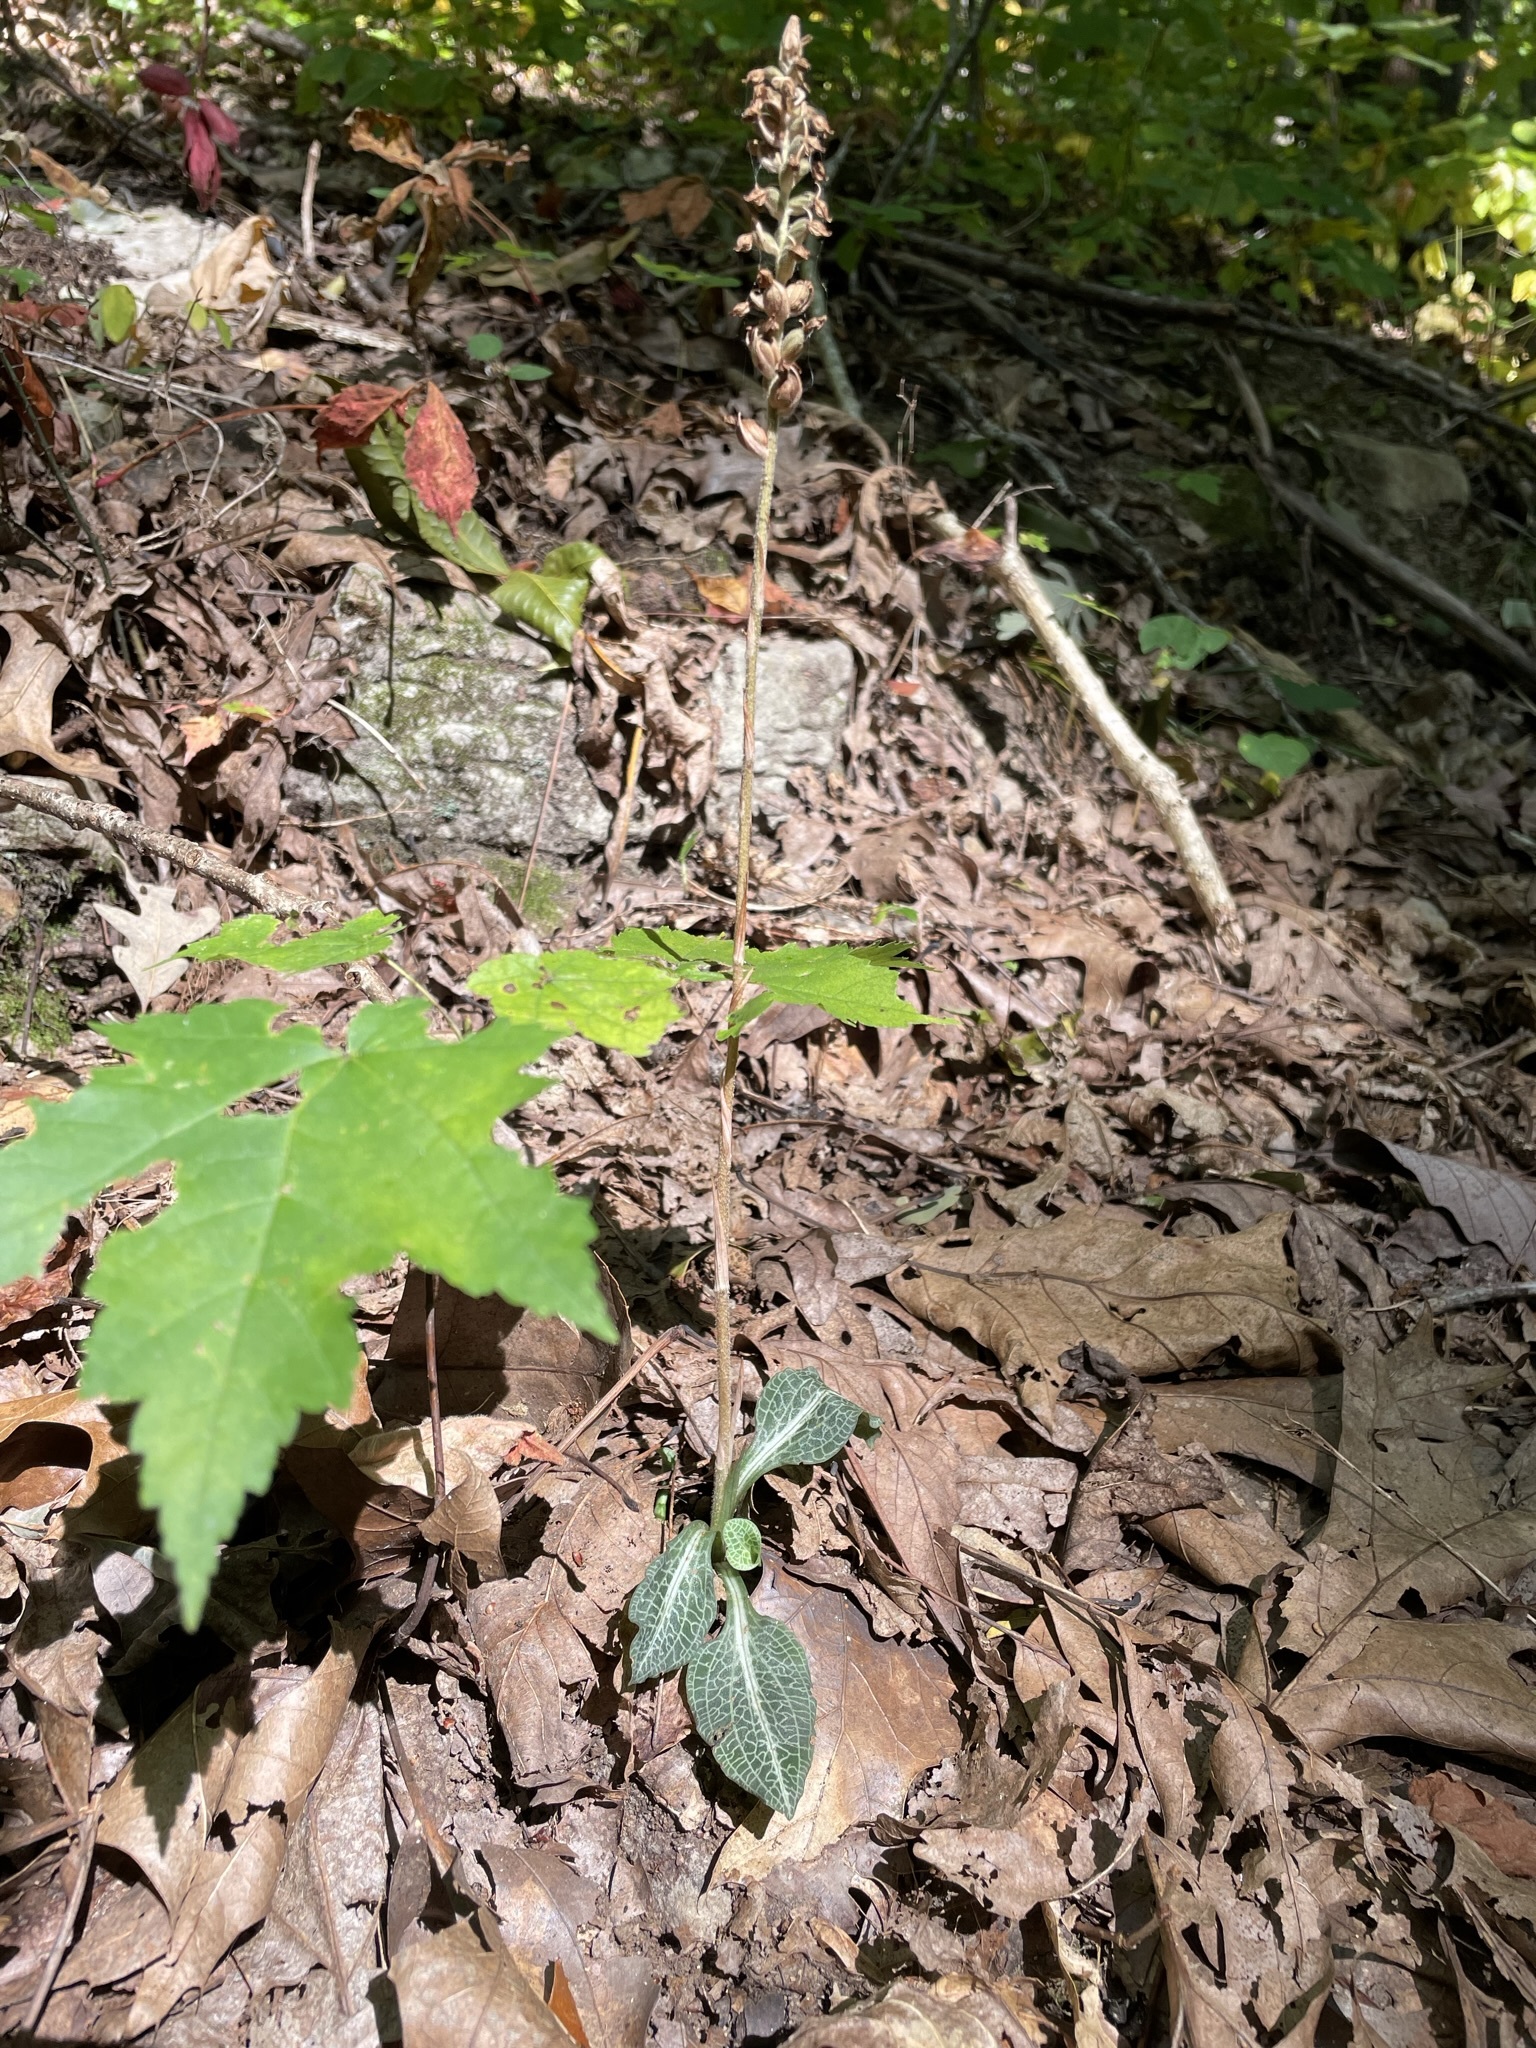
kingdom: Plantae
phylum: Tracheophyta
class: Liliopsida
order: Asparagales
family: Orchidaceae
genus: Goodyera
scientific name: Goodyera pubescens
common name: Downy rattlesnake-plantain
